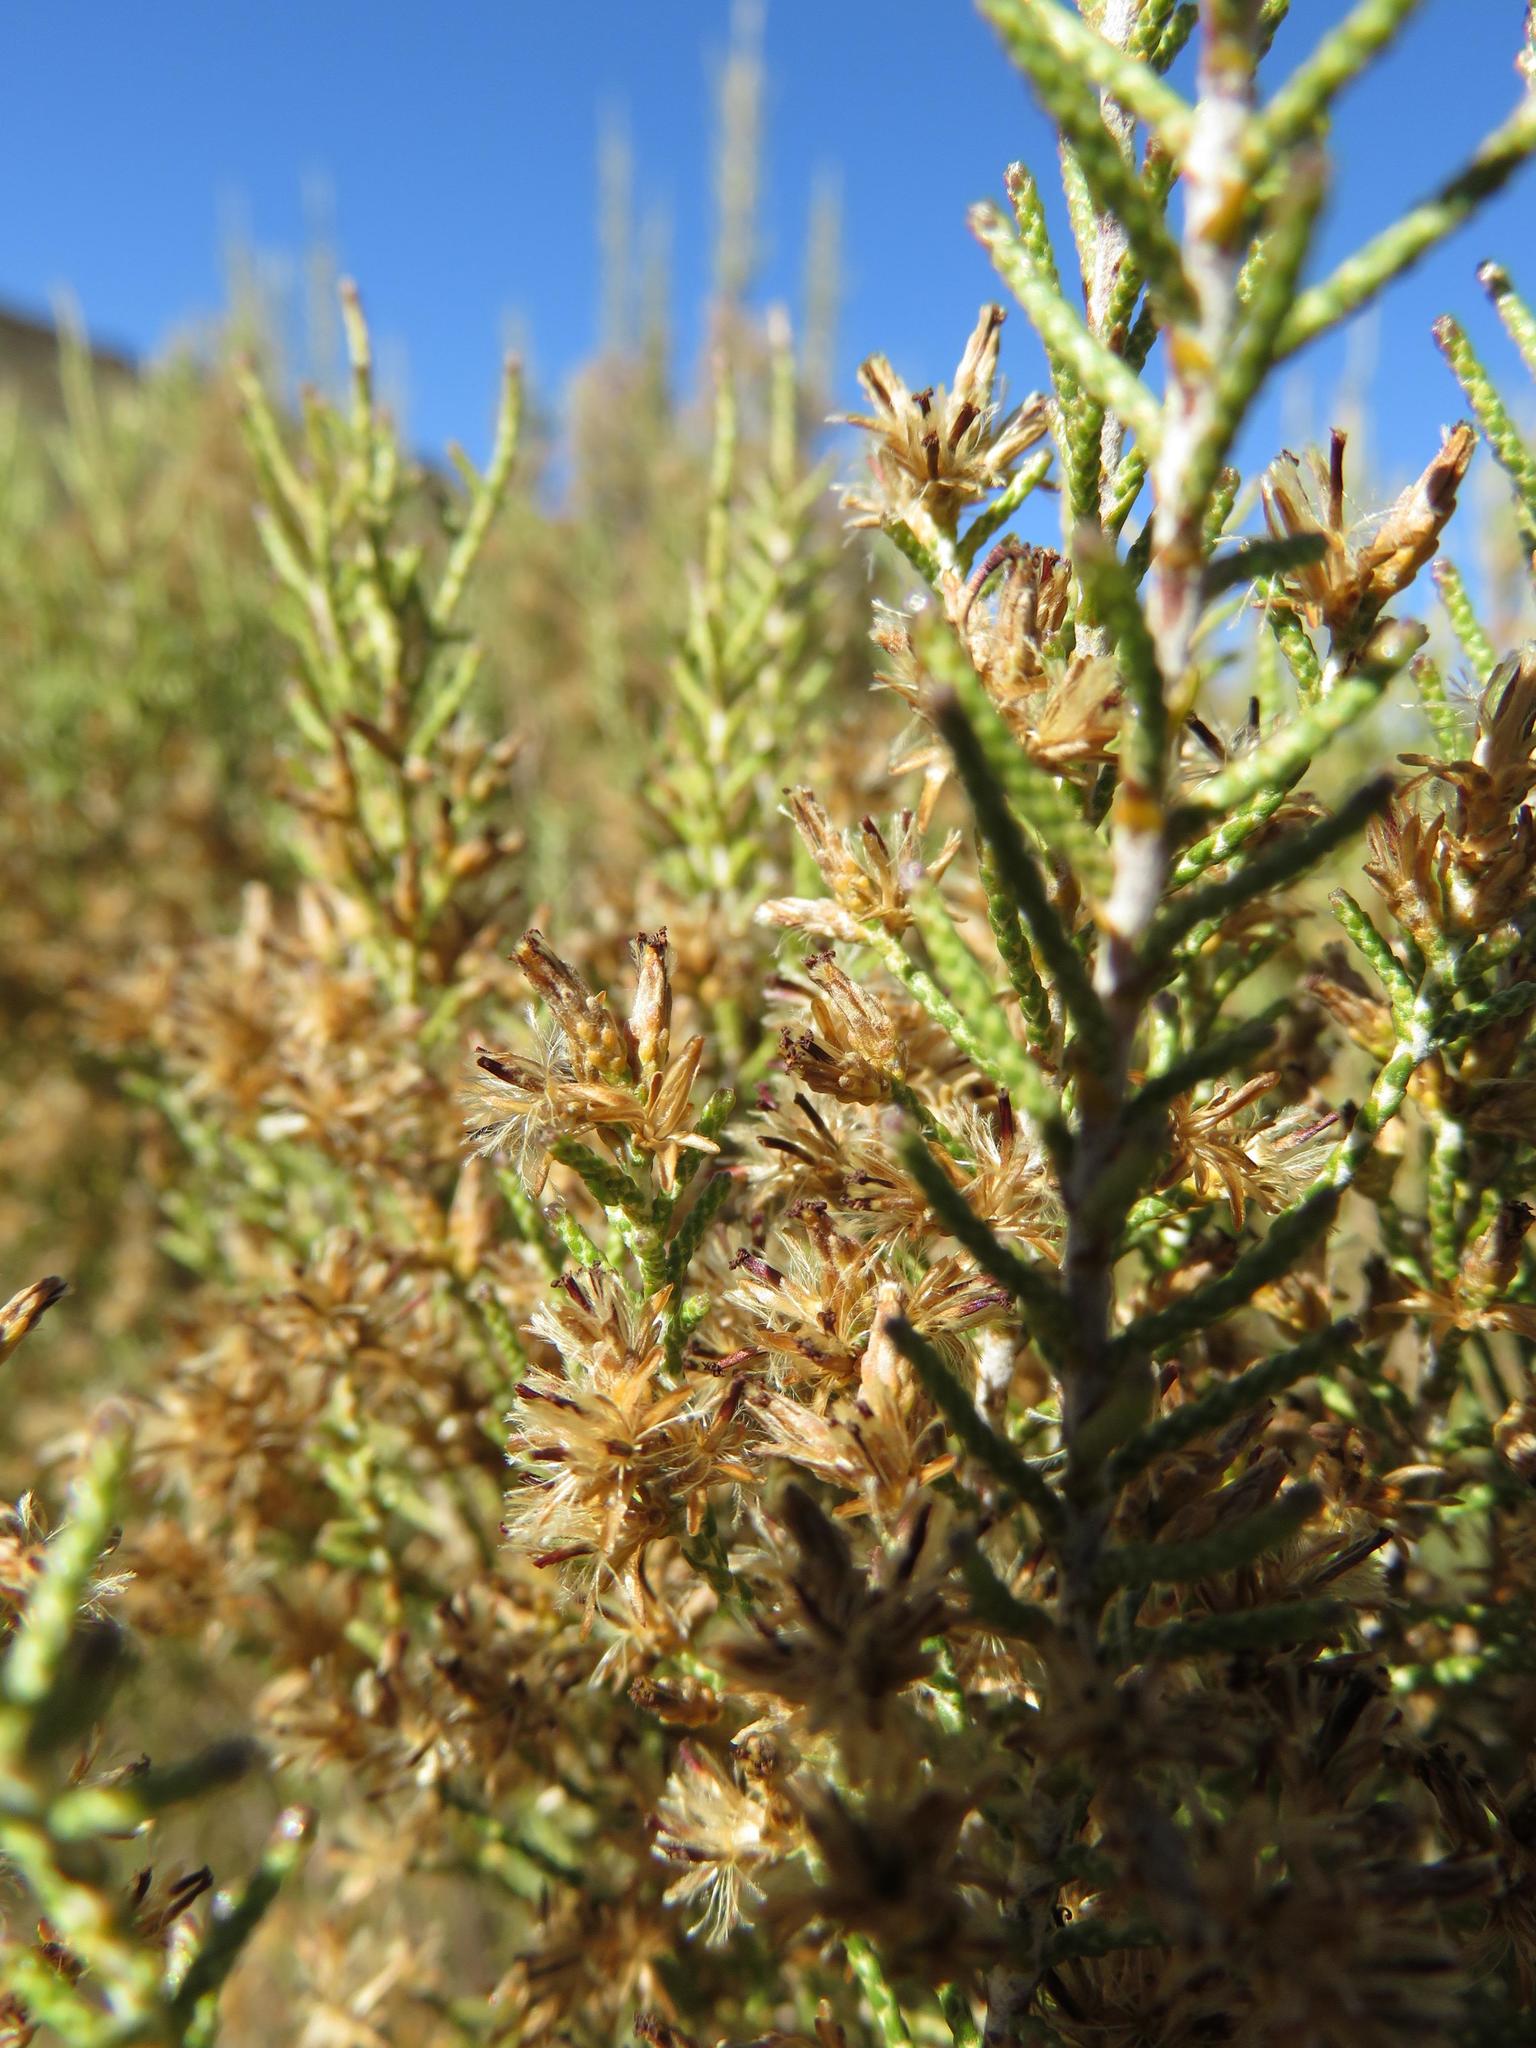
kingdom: Plantae
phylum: Tracheophyta
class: Magnoliopsida
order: Asterales
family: Asteraceae
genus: Dicerothamnus
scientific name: Dicerothamnus rhinocerotis
